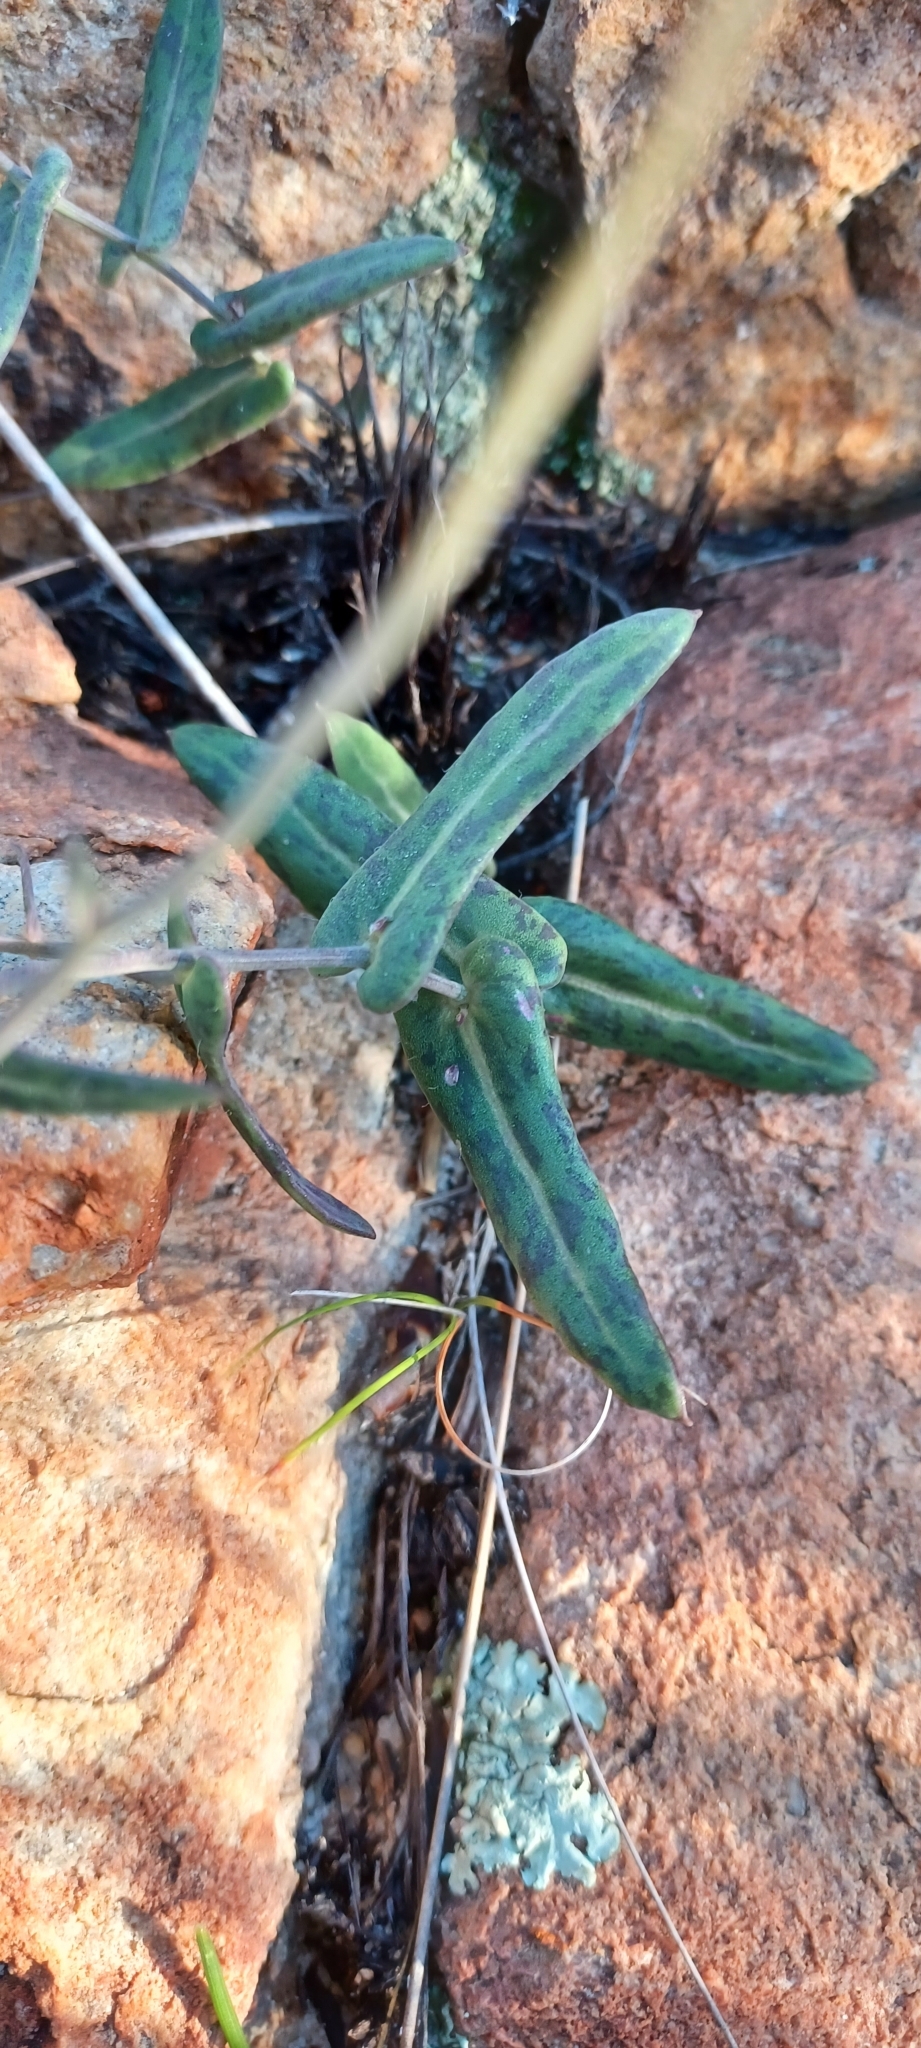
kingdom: Plantae
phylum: Tracheophyta
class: Magnoliopsida
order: Asterales
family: Asteraceae
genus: Othonna
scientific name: Othonna perfoliata
